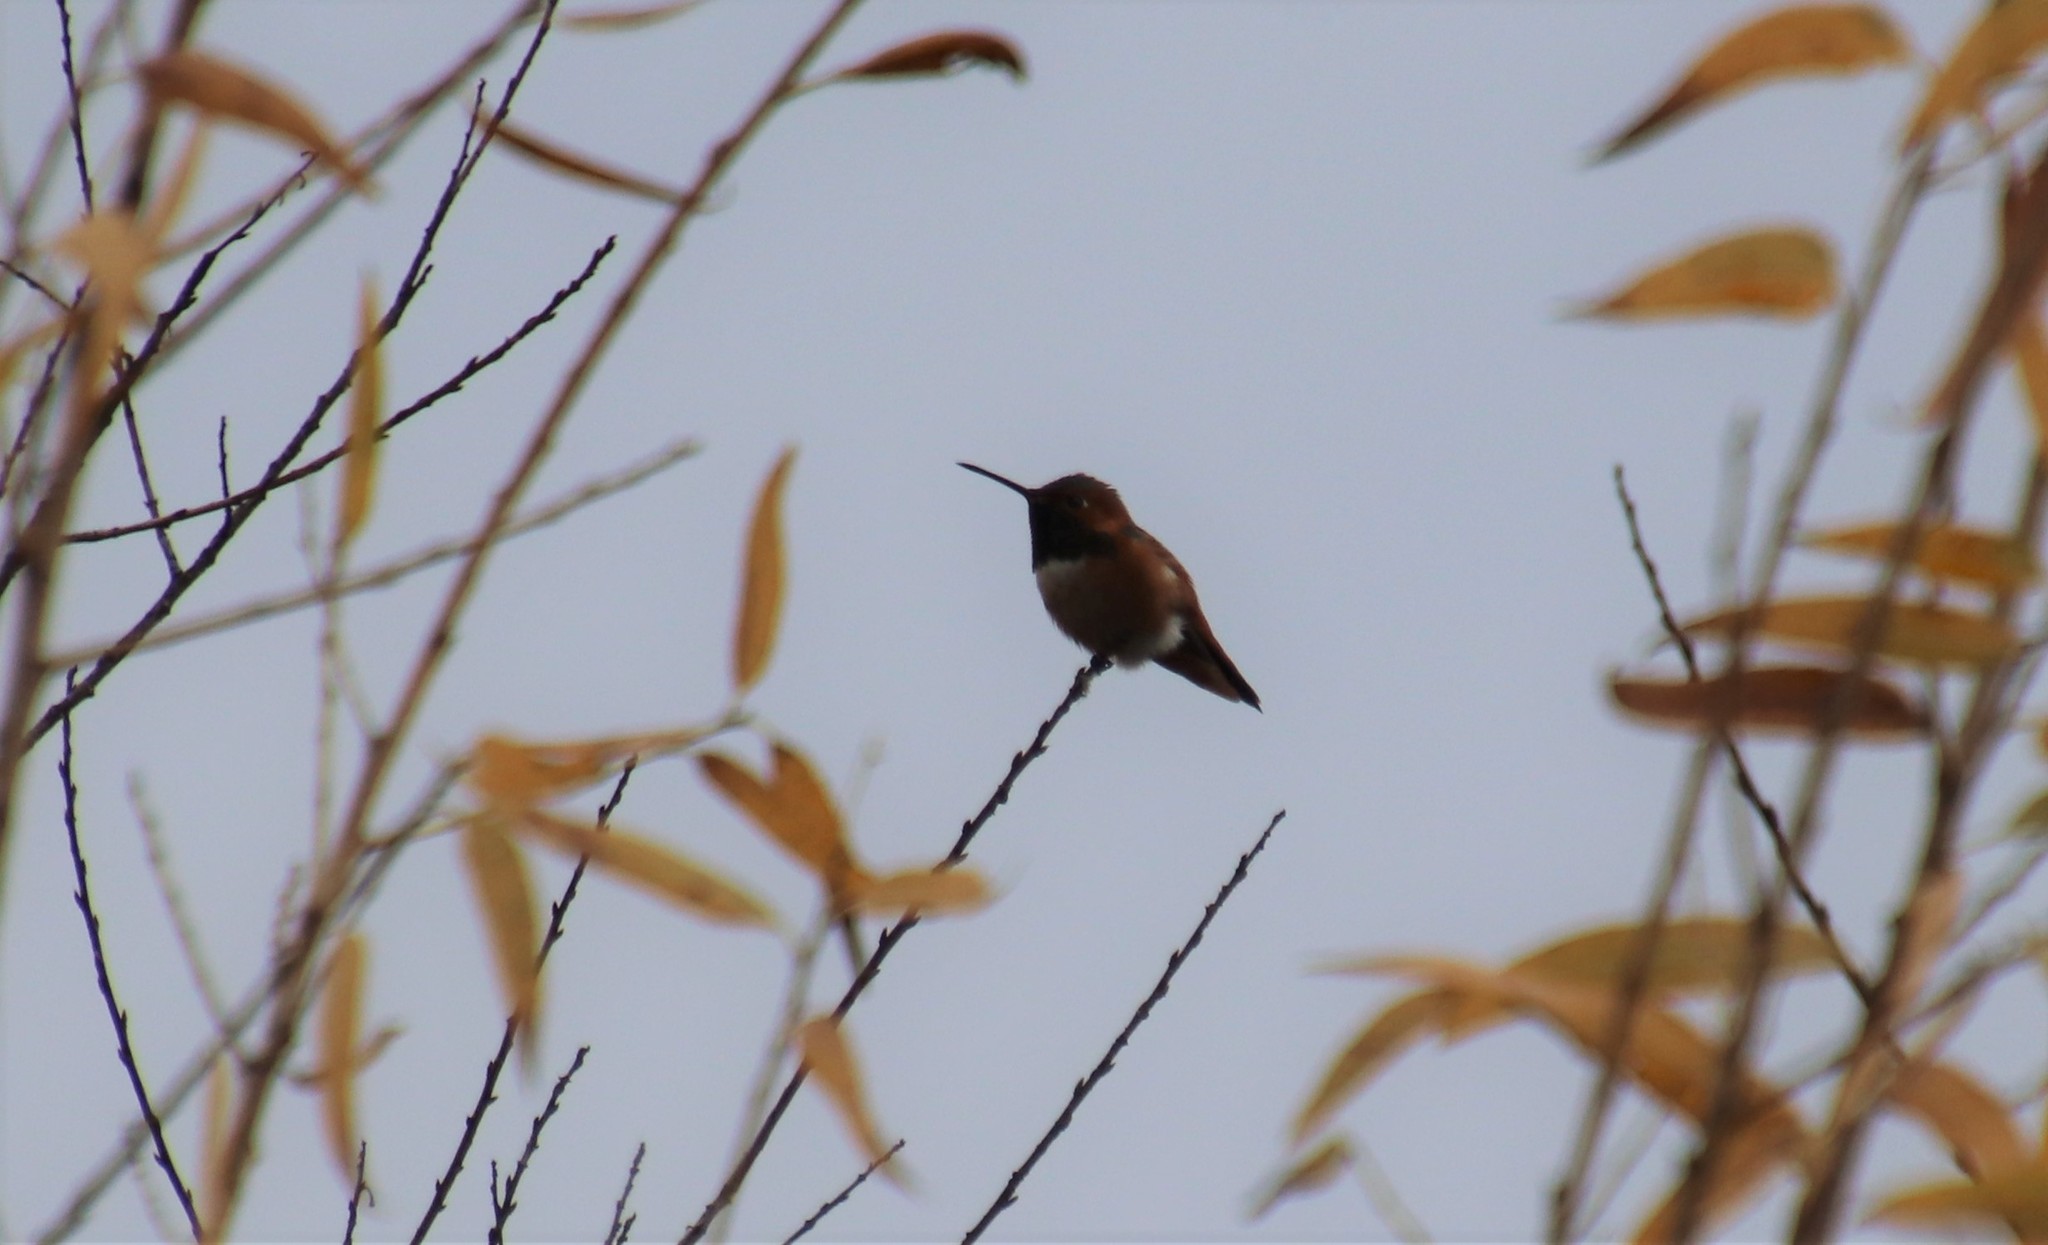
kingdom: Animalia
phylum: Chordata
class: Aves
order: Apodiformes
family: Trochilidae
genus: Selasphorus
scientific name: Selasphorus sasin
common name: Allen's hummingbird
